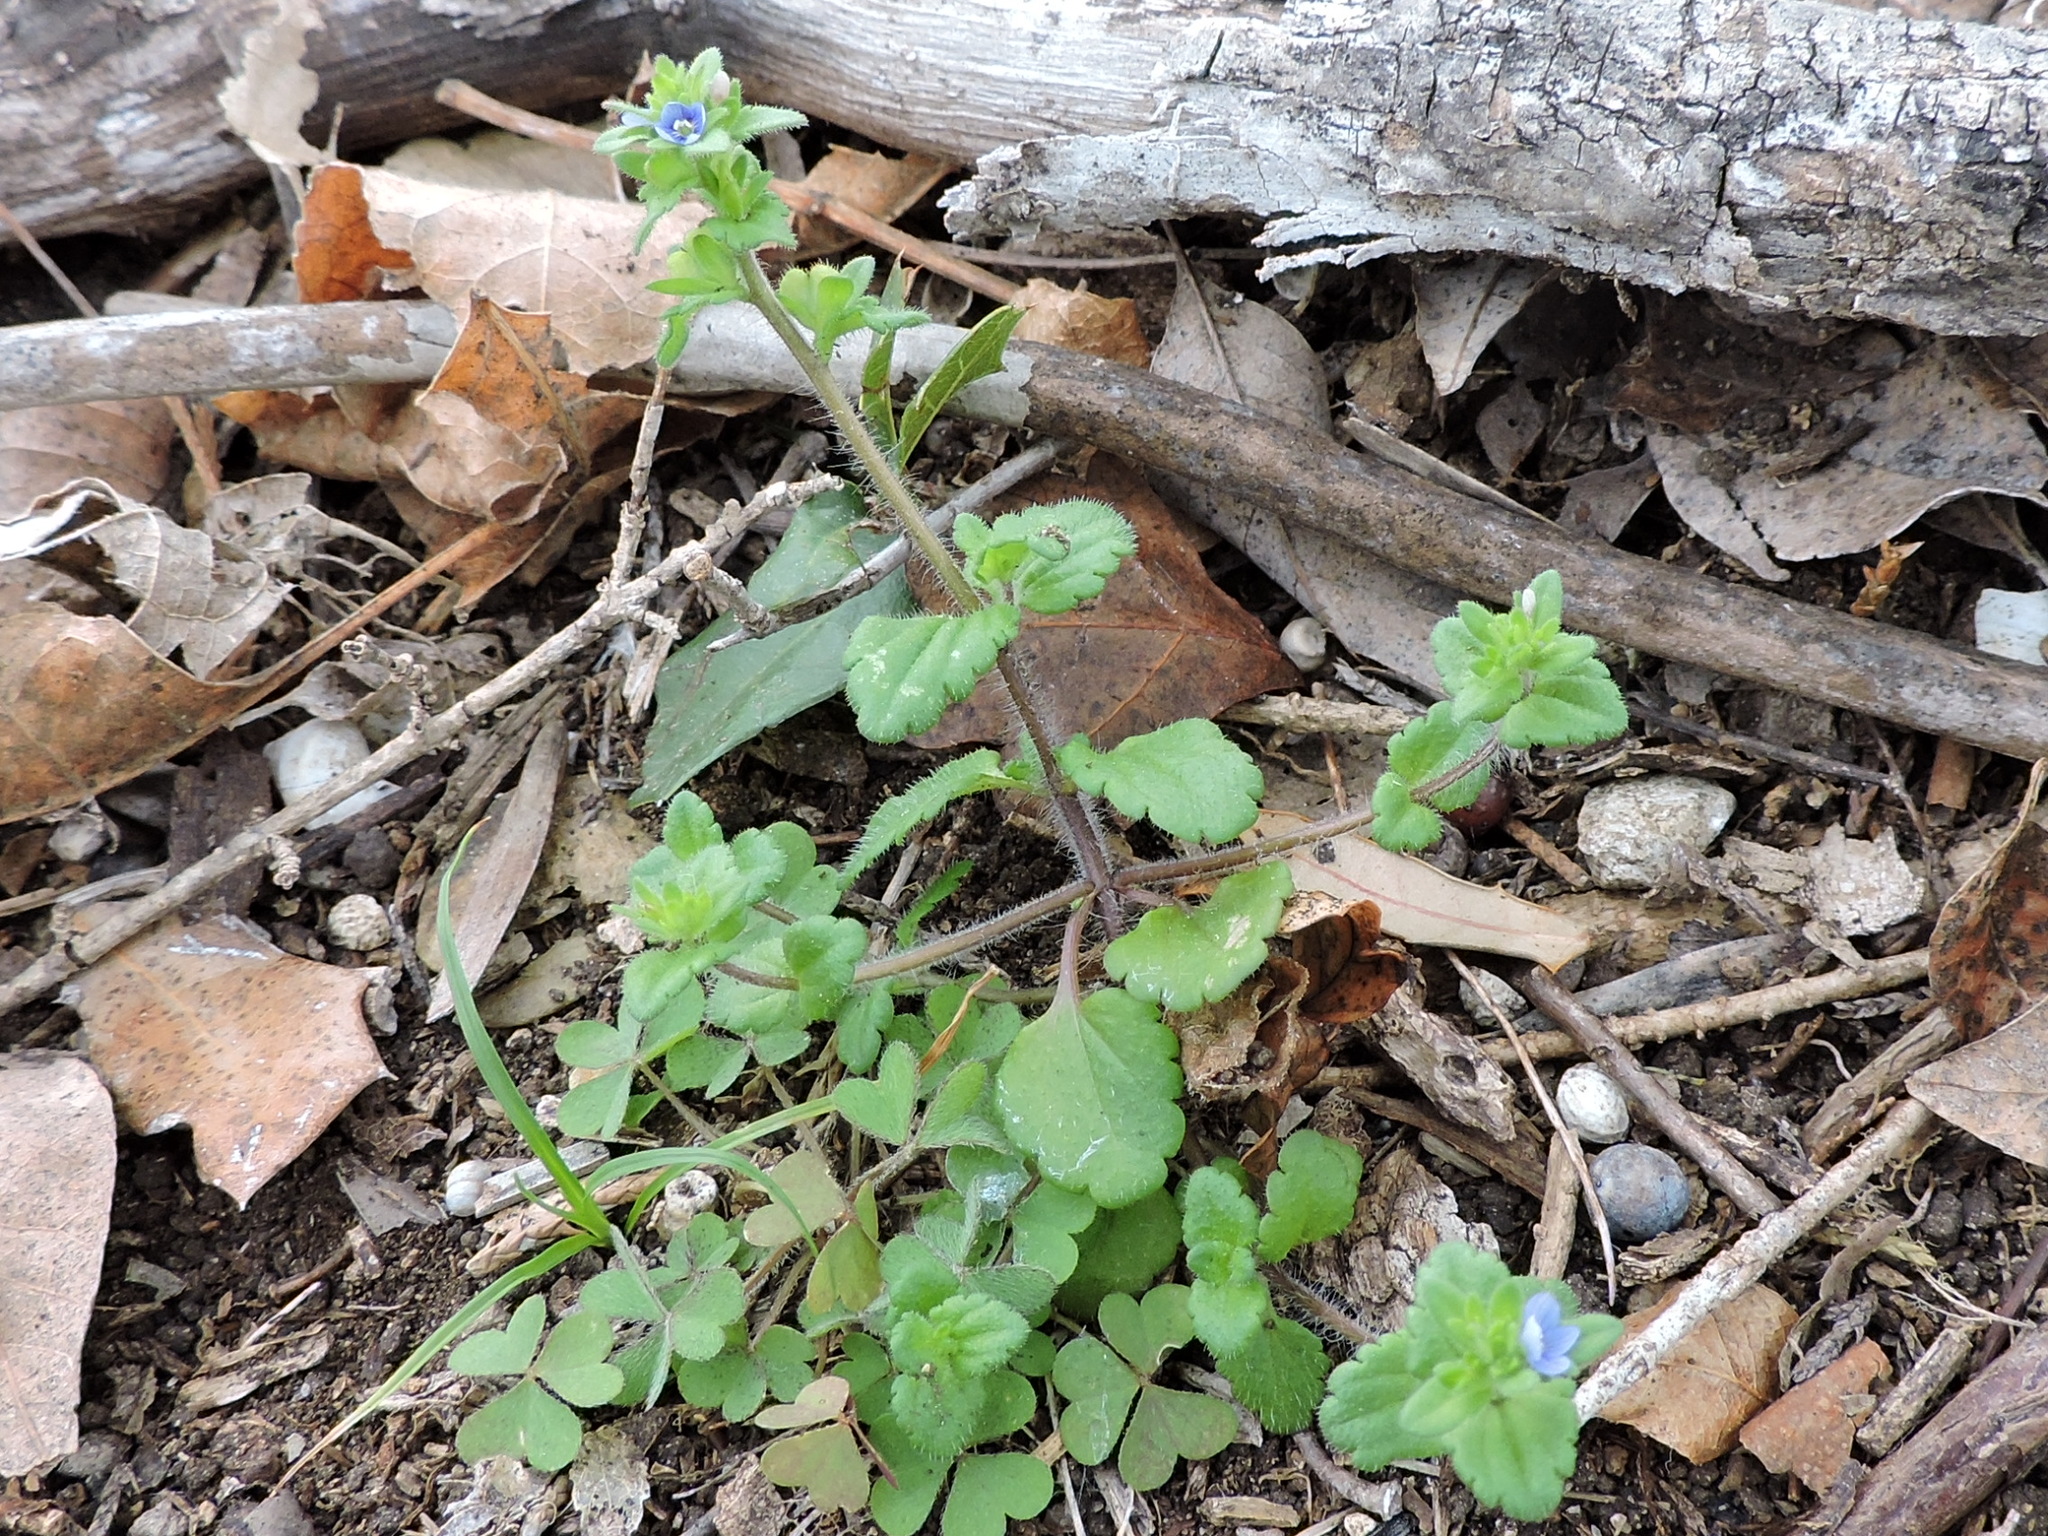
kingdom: Plantae
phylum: Tracheophyta
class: Magnoliopsida
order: Lamiales
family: Plantaginaceae
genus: Veronica
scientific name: Veronica arvensis
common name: Corn speedwell
